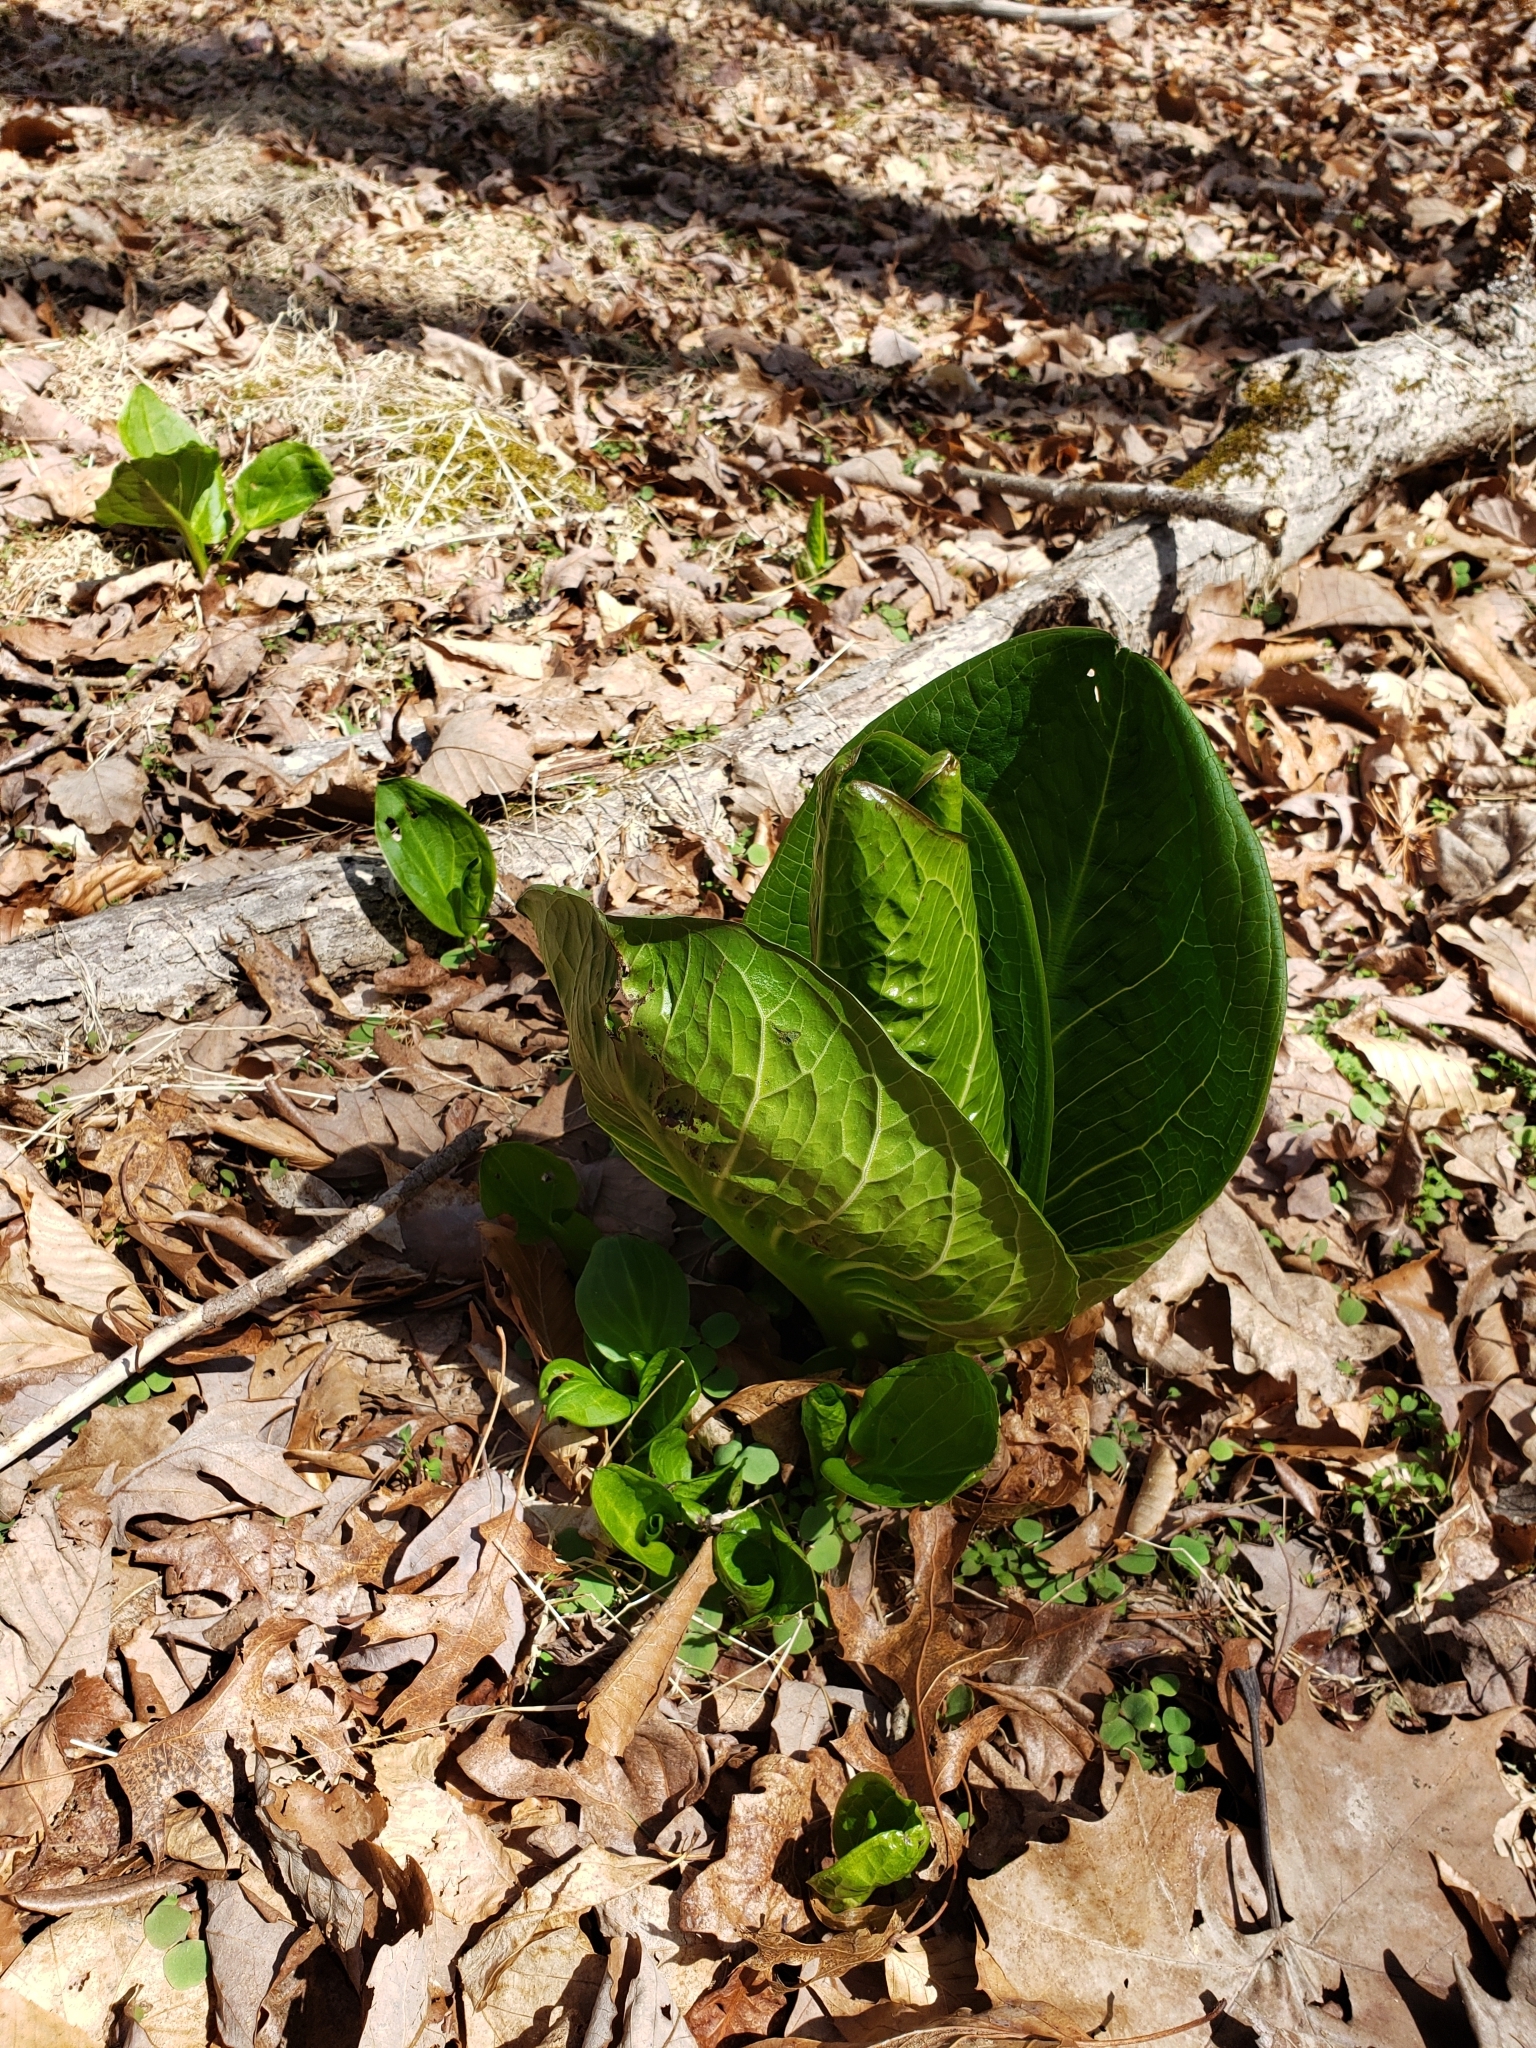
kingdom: Plantae
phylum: Tracheophyta
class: Liliopsida
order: Alismatales
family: Araceae
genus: Symplocarpus
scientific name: Symplocarpus foetidus
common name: Eastern skunk cabbage
